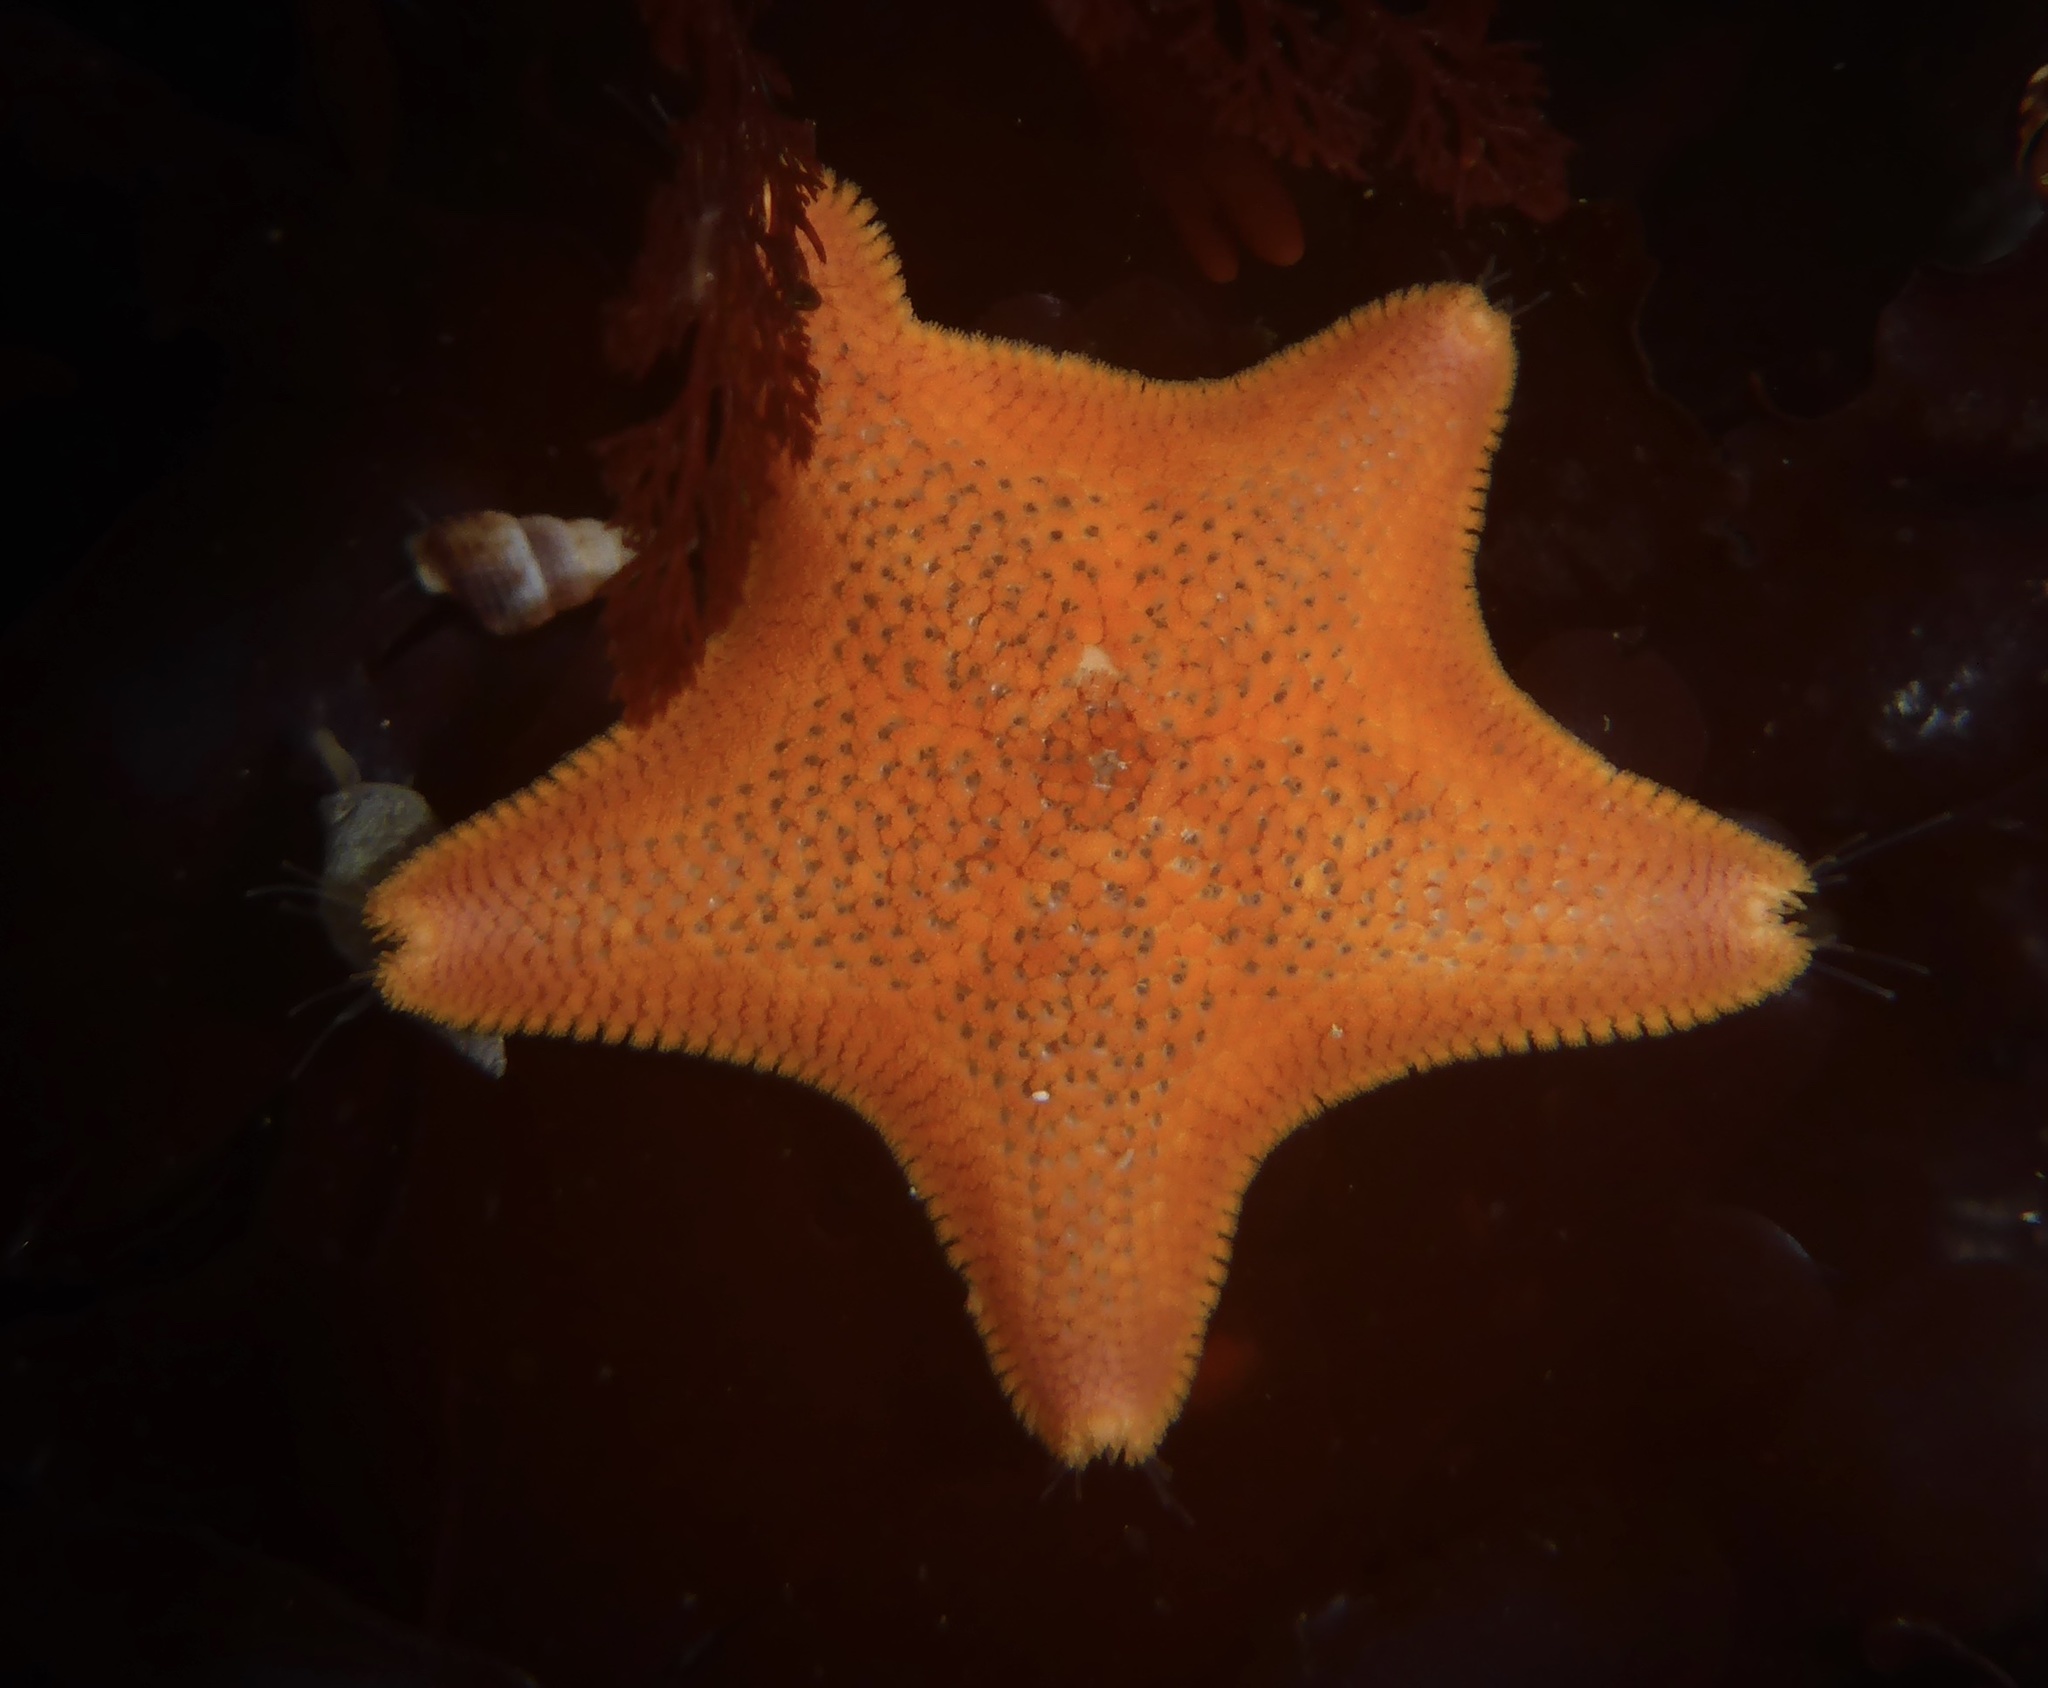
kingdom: Animalia
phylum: Echinodermata
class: Asteroidea
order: Valvatida
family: Asterinidae
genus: Patiria
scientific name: Patiria miniata
